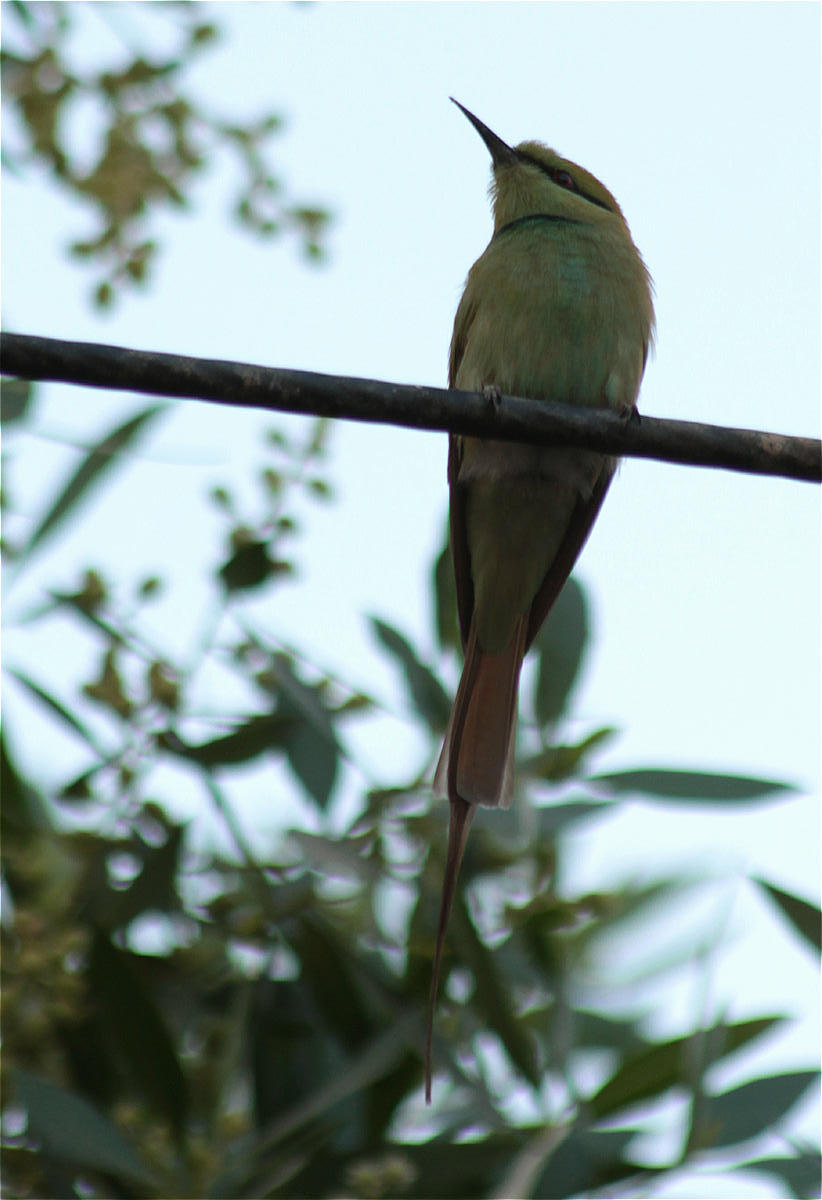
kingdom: Animalia
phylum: Chordata
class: Aves
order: Coraciiformes
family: Meropidae
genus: Merops
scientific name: Merops viridissimus
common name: African green bee-eater
